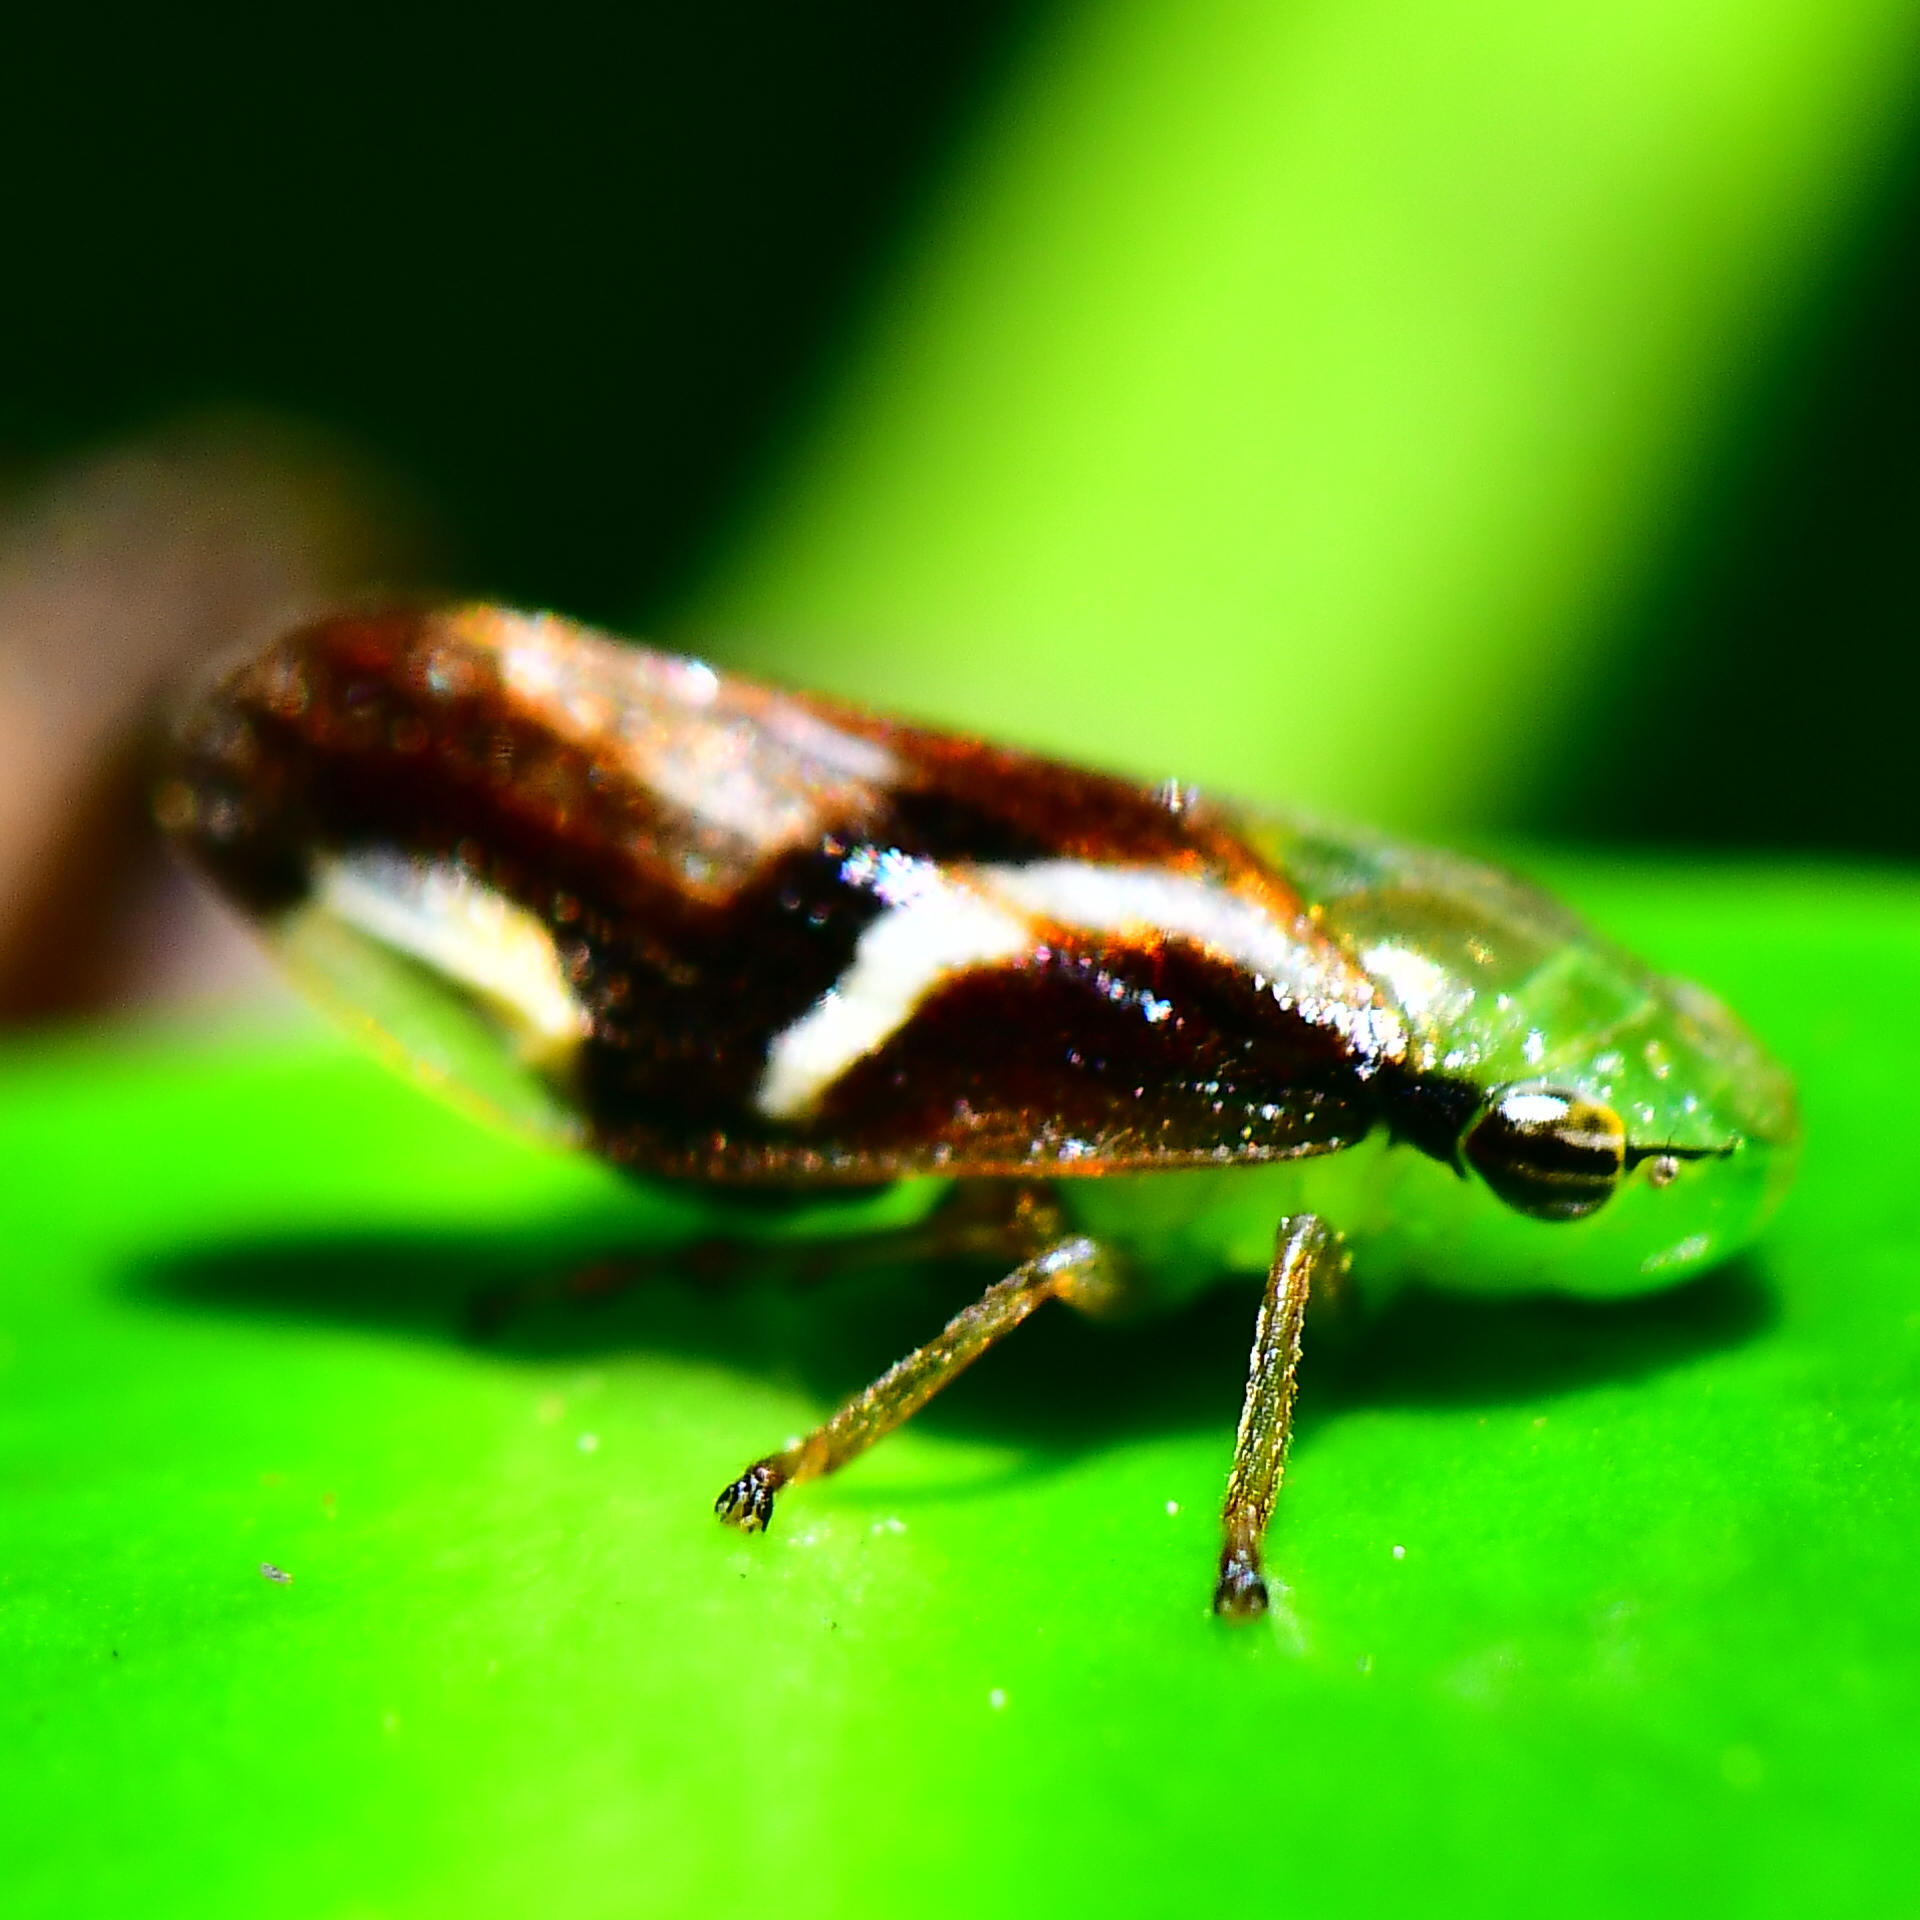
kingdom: Animalia
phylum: Arthropoda
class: Insecta
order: Hemiptera
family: Aphrophoridae
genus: Carystoterpa
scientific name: Carystoterpa fingens
